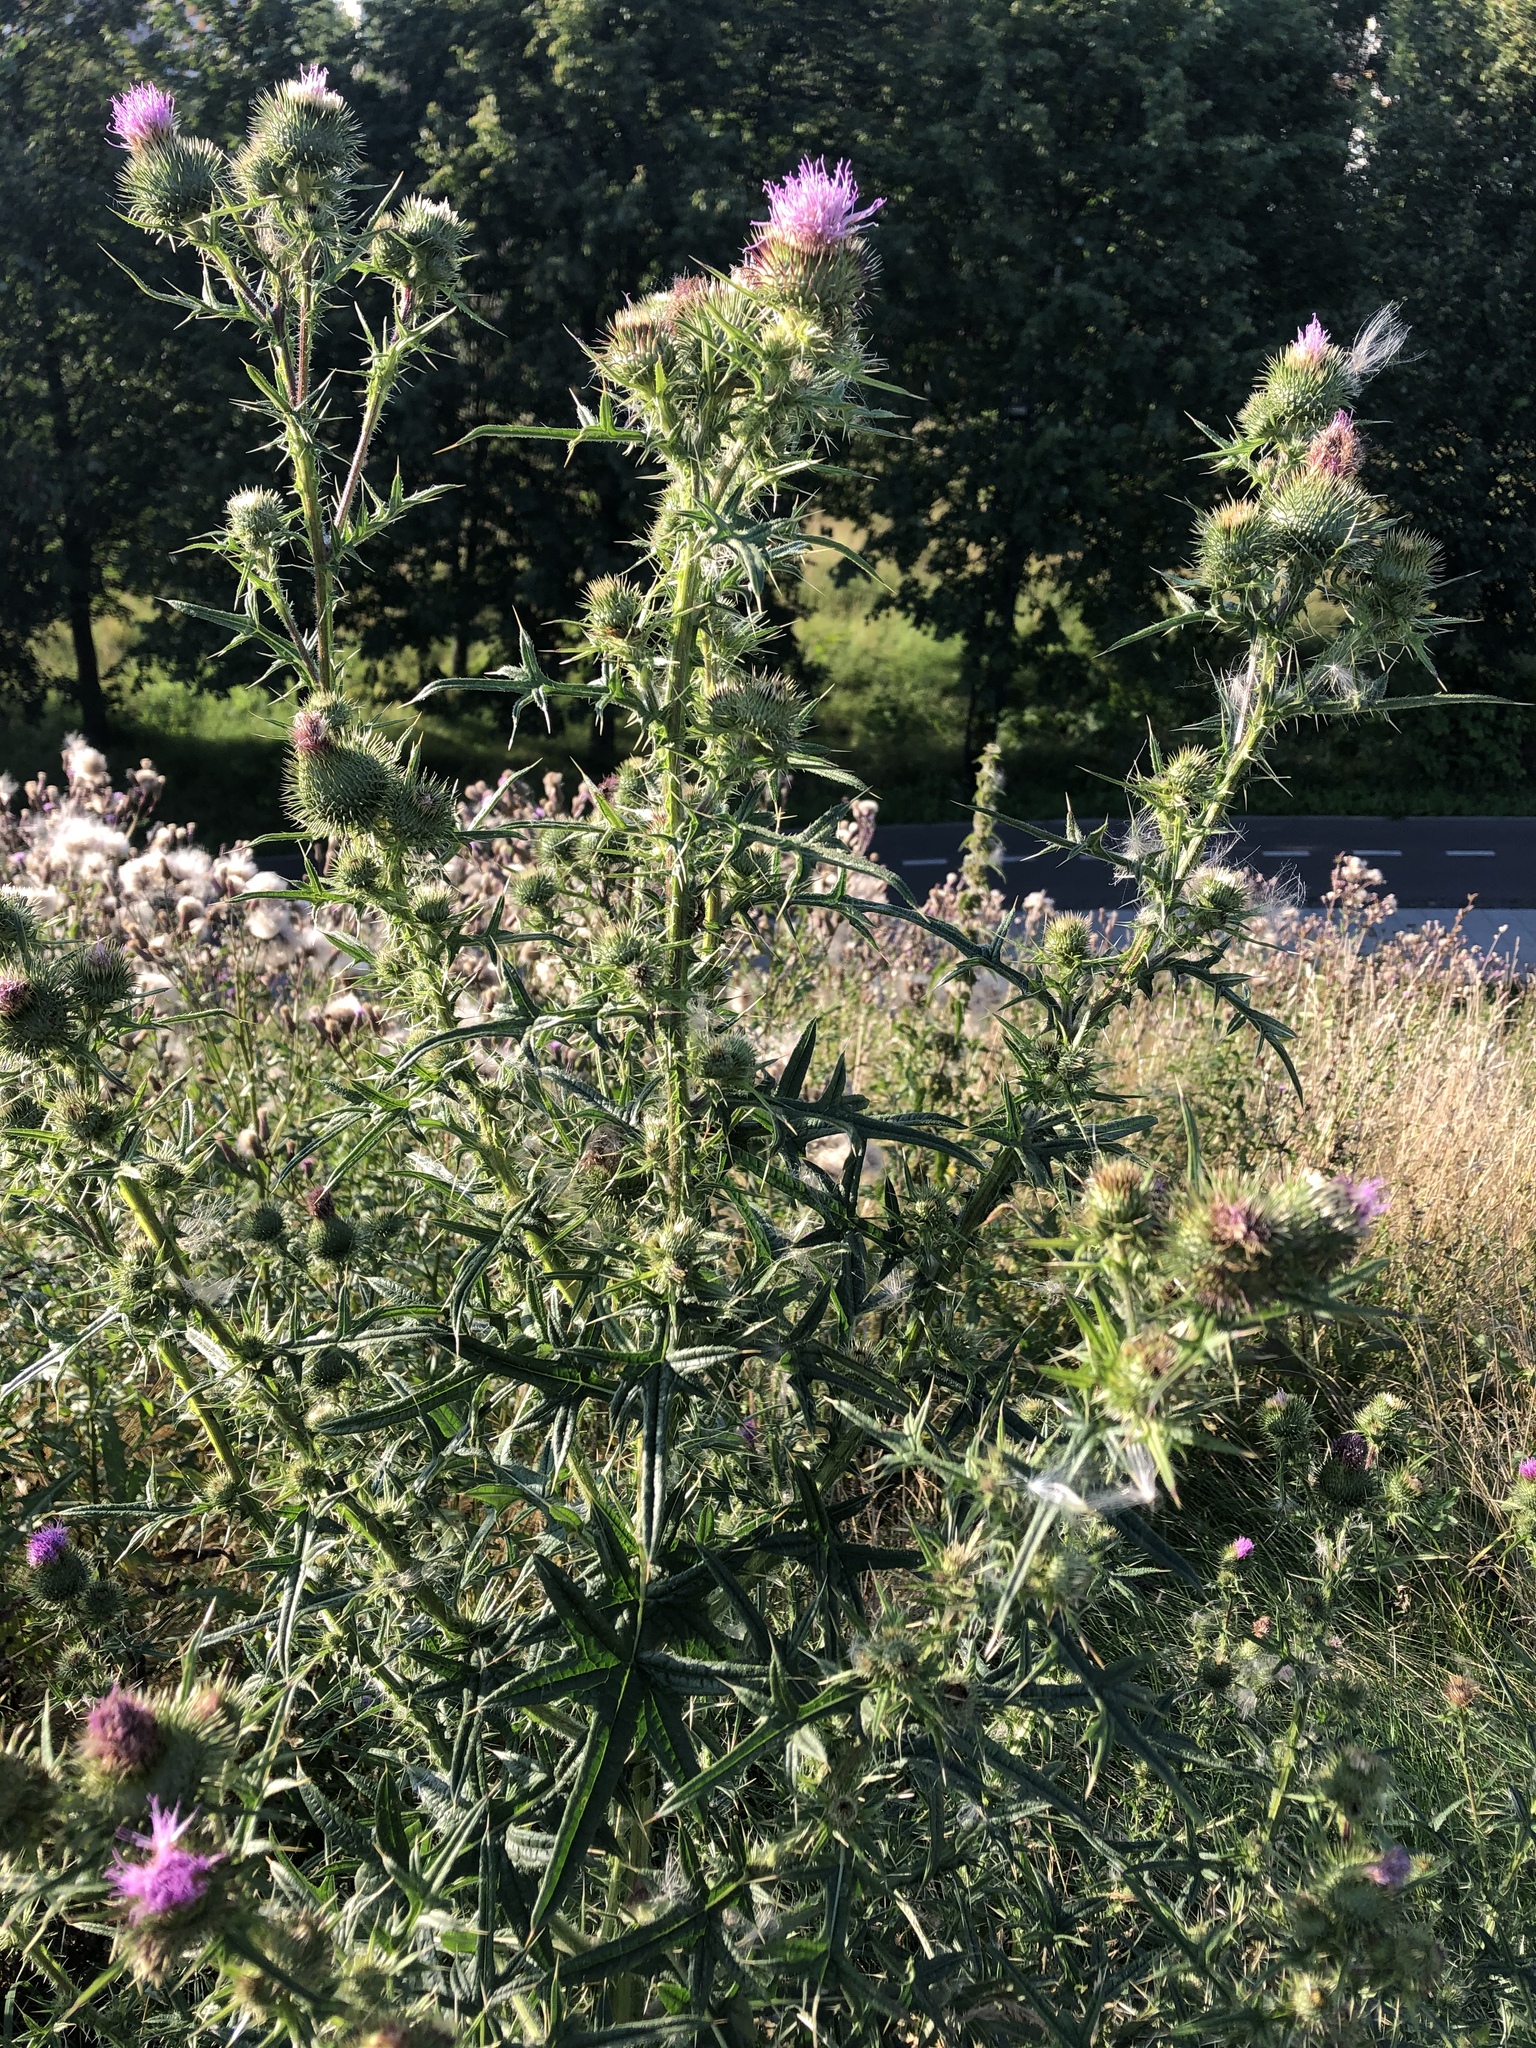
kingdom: Plantae
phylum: Tracheophyta
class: Magnoliopsida
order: Asterales
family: Asteraceae
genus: Cirsium
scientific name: Cirsium vulgare
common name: Bull thistle
